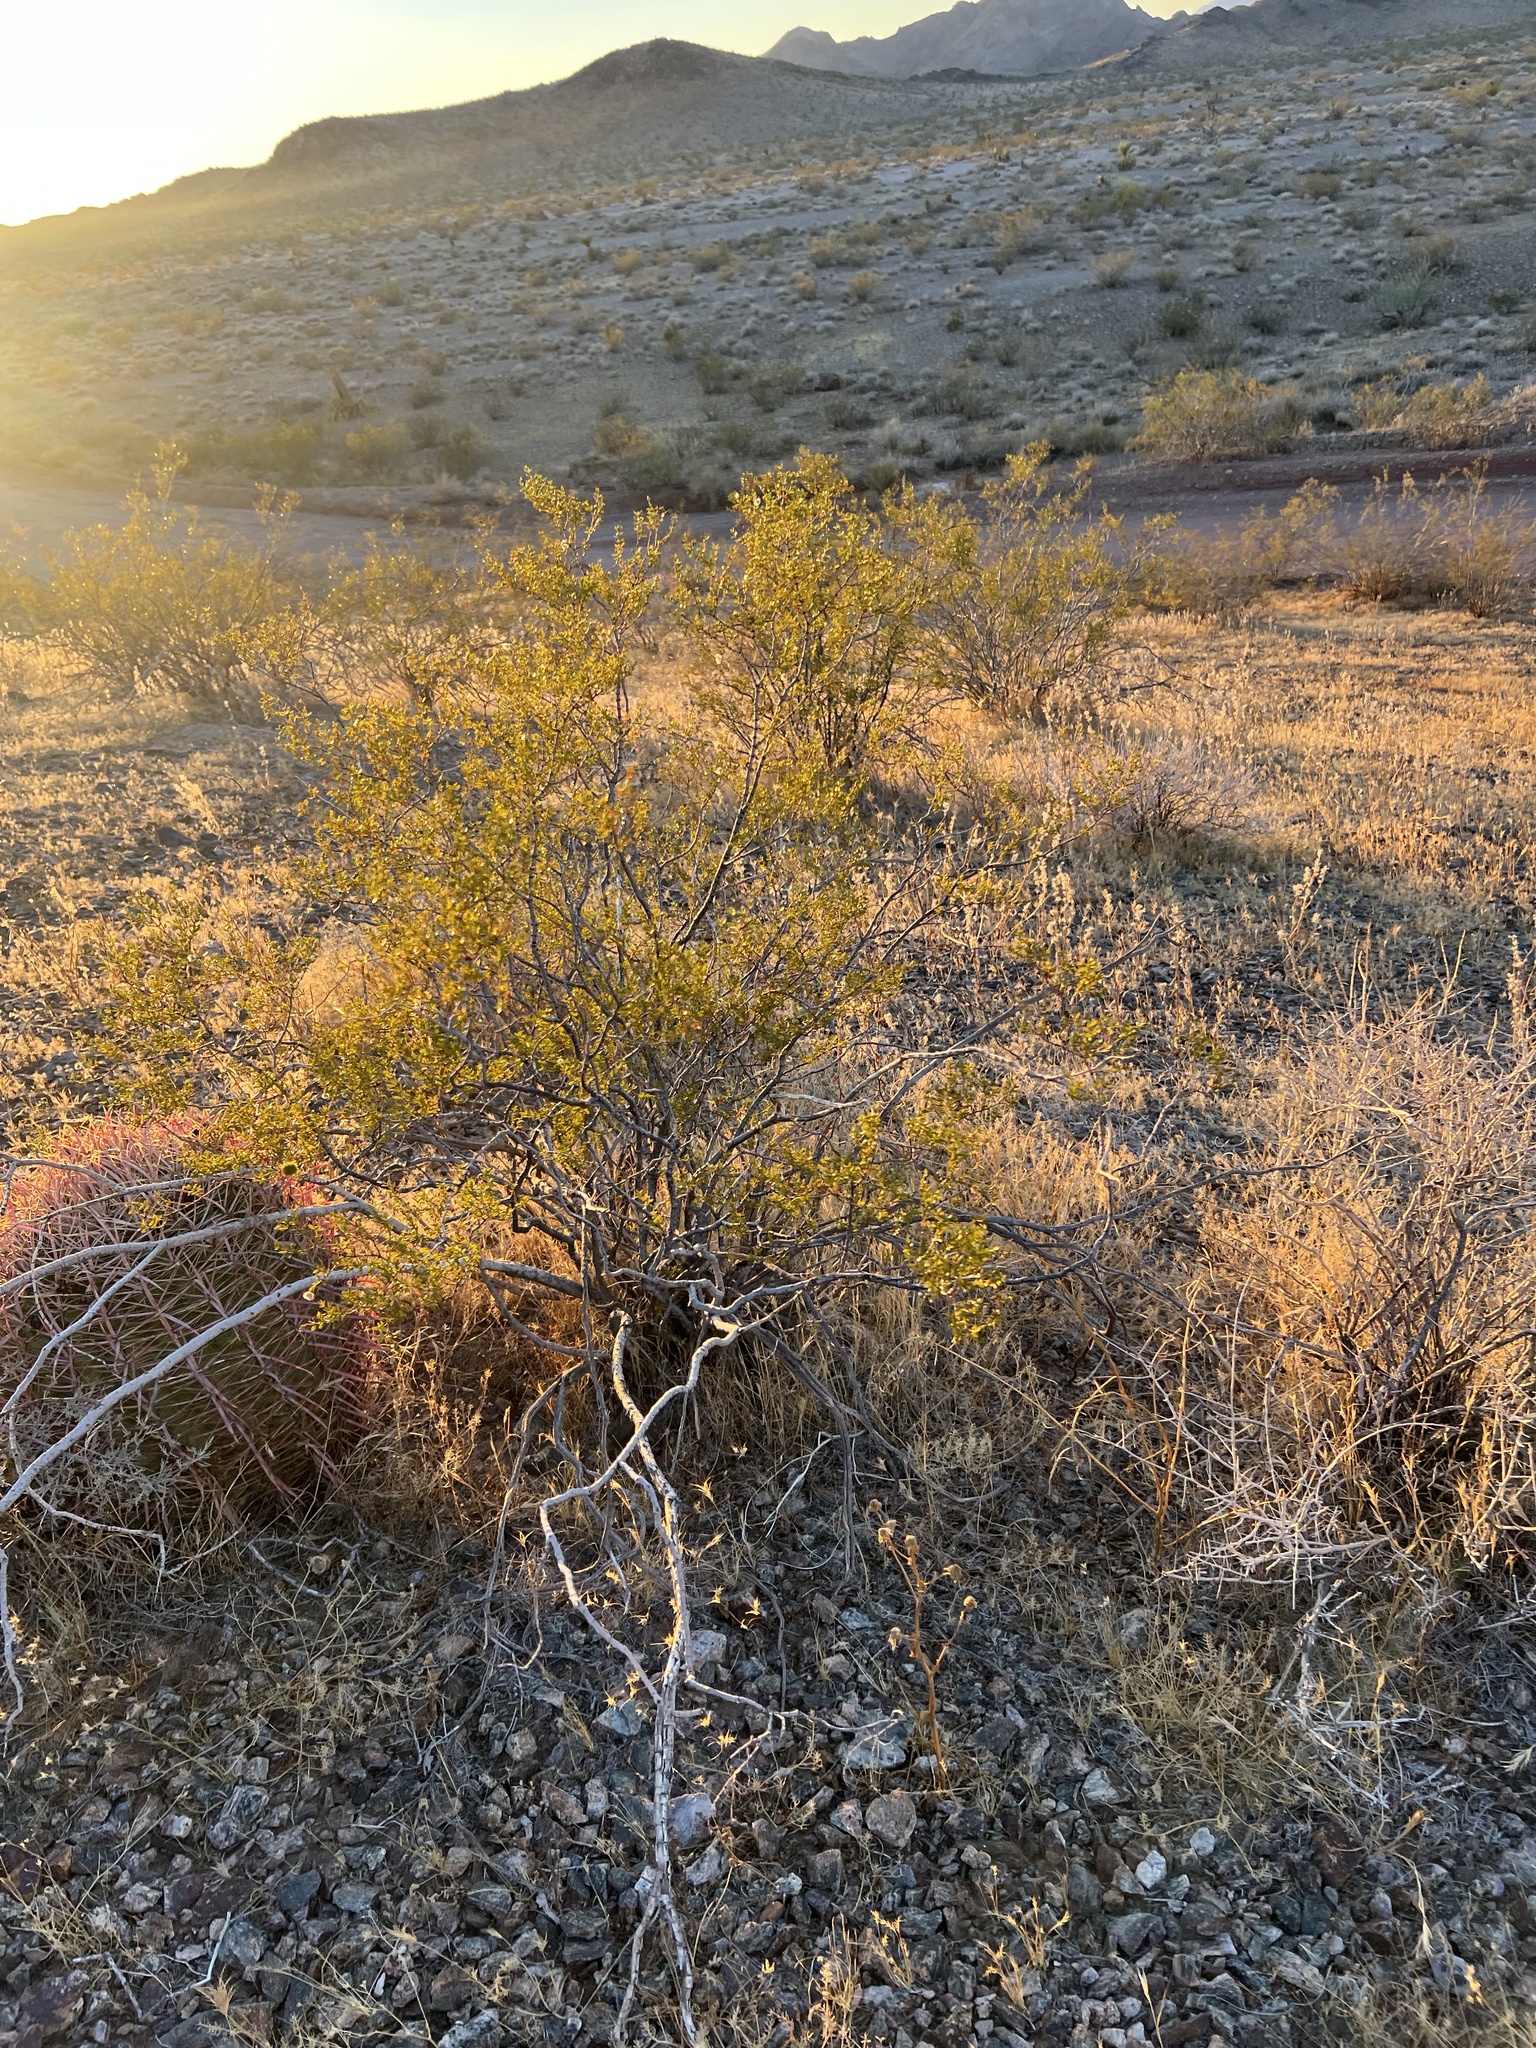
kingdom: Plantae
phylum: Tracheophyta
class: Magnoliopsida
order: Zygophyllales
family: Zygophyllaceae
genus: Larrea
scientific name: Larrea tridentata
